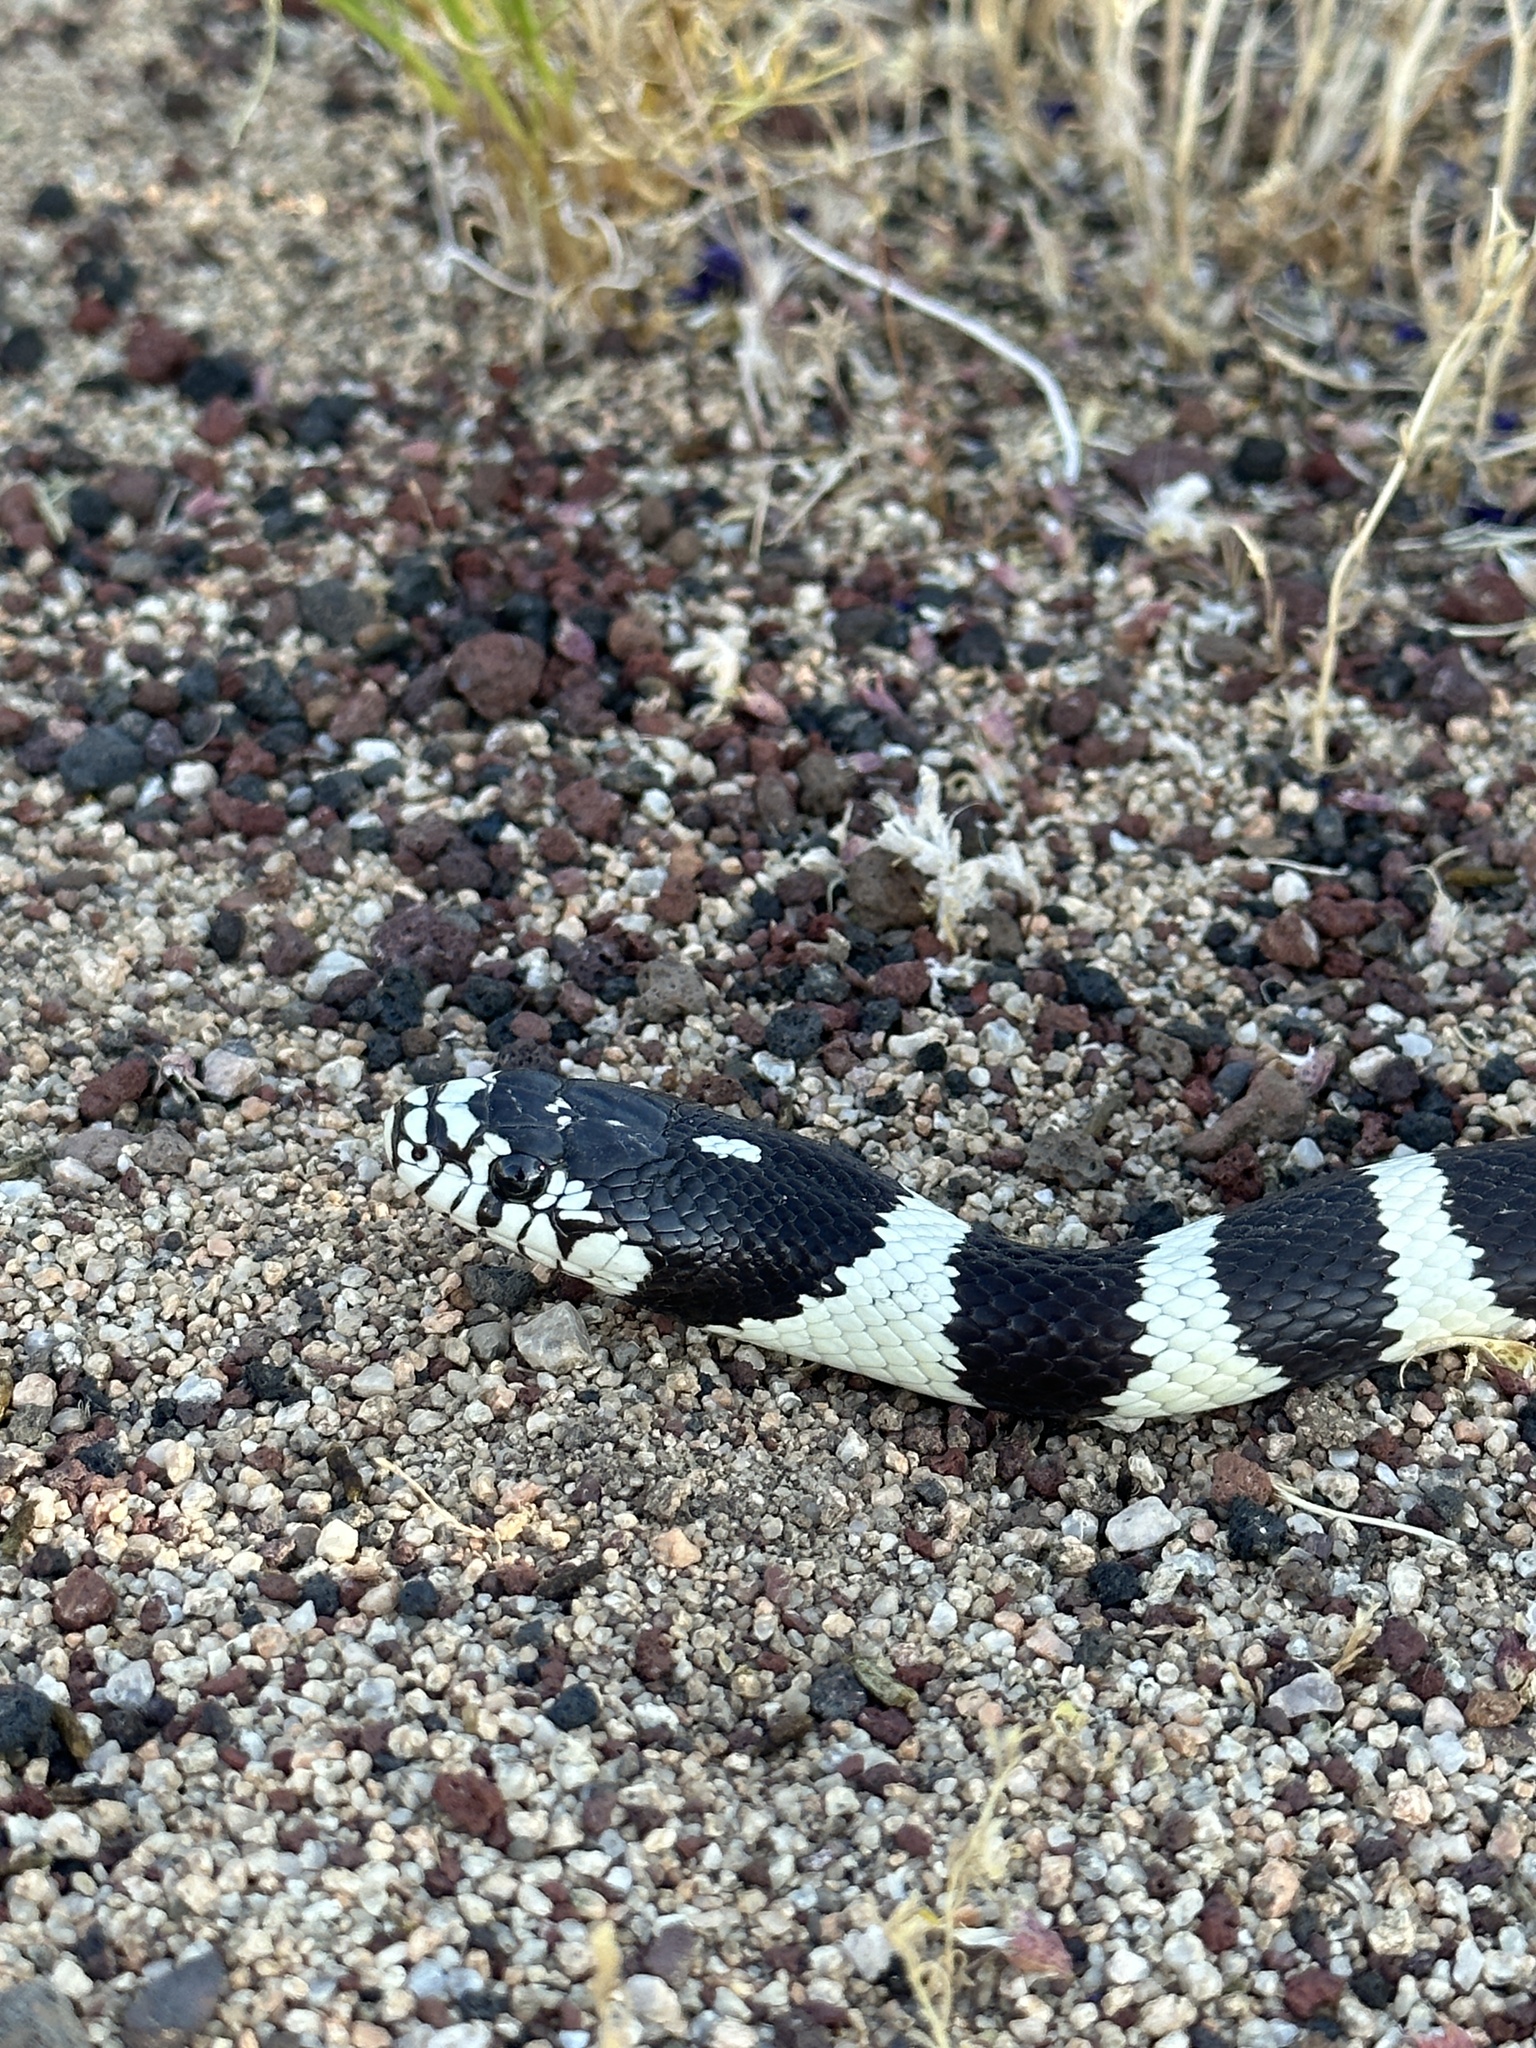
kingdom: Animalia
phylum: Chordata
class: Squamata
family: Colubridae
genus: Lampropeltis
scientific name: Lampropeltis californiae
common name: California kingsnake
